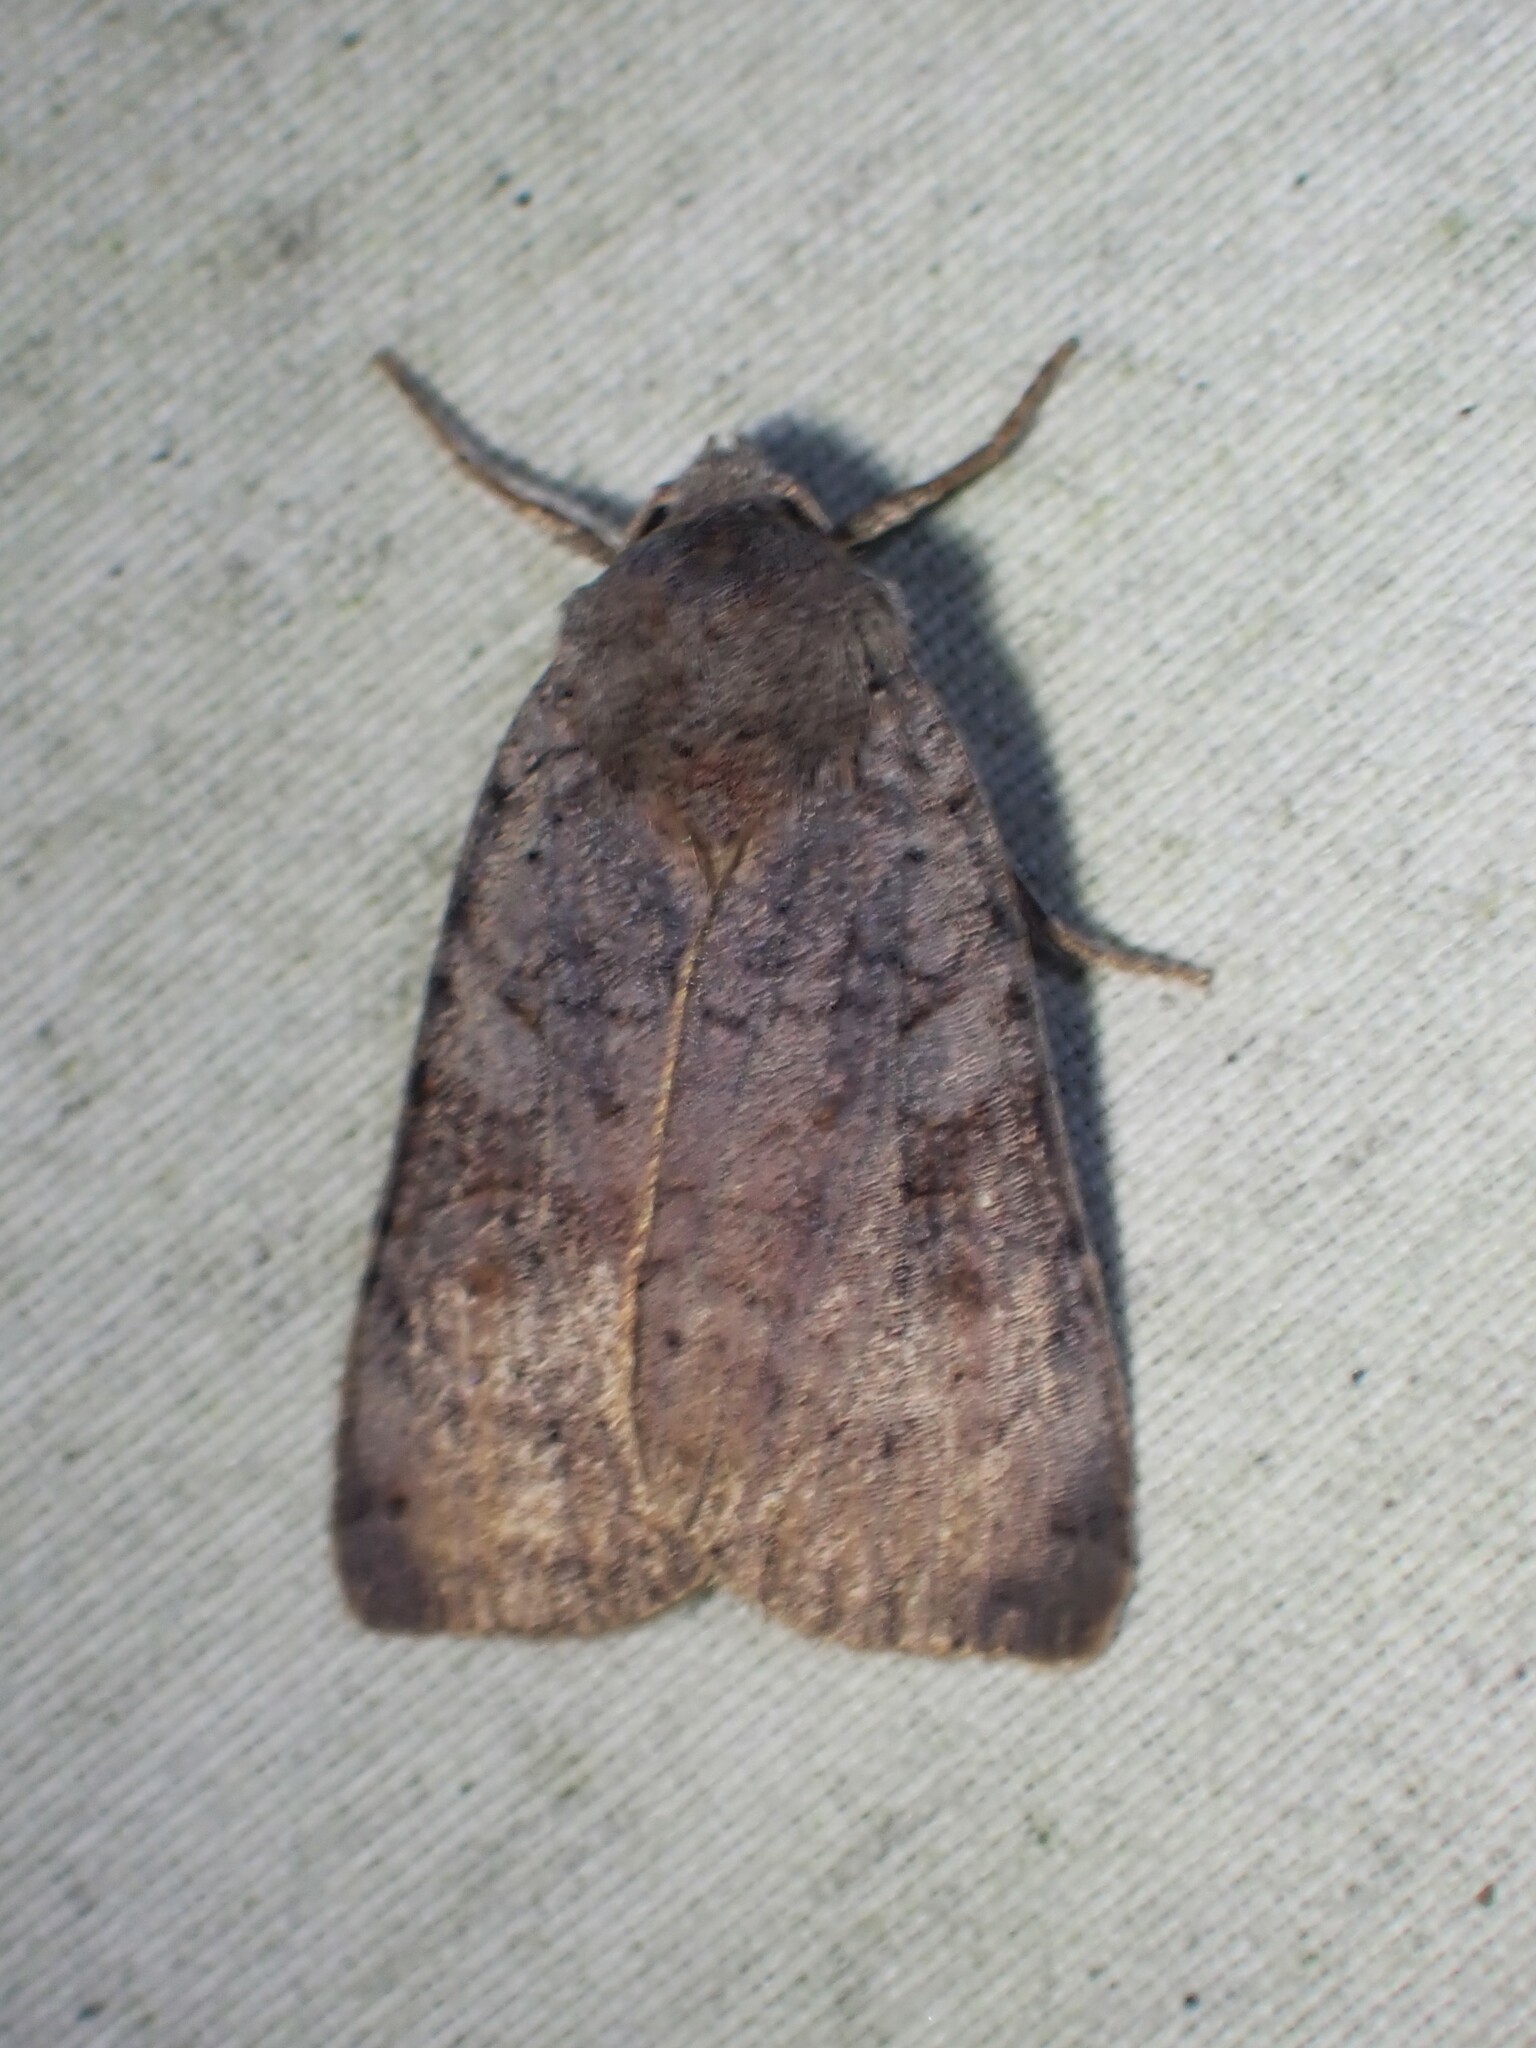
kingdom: Animalia
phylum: Arthropoda
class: Insecta
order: Lepidoptera
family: Noctuidae
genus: Xestia
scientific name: Xestia smithii
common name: Smith's dart
